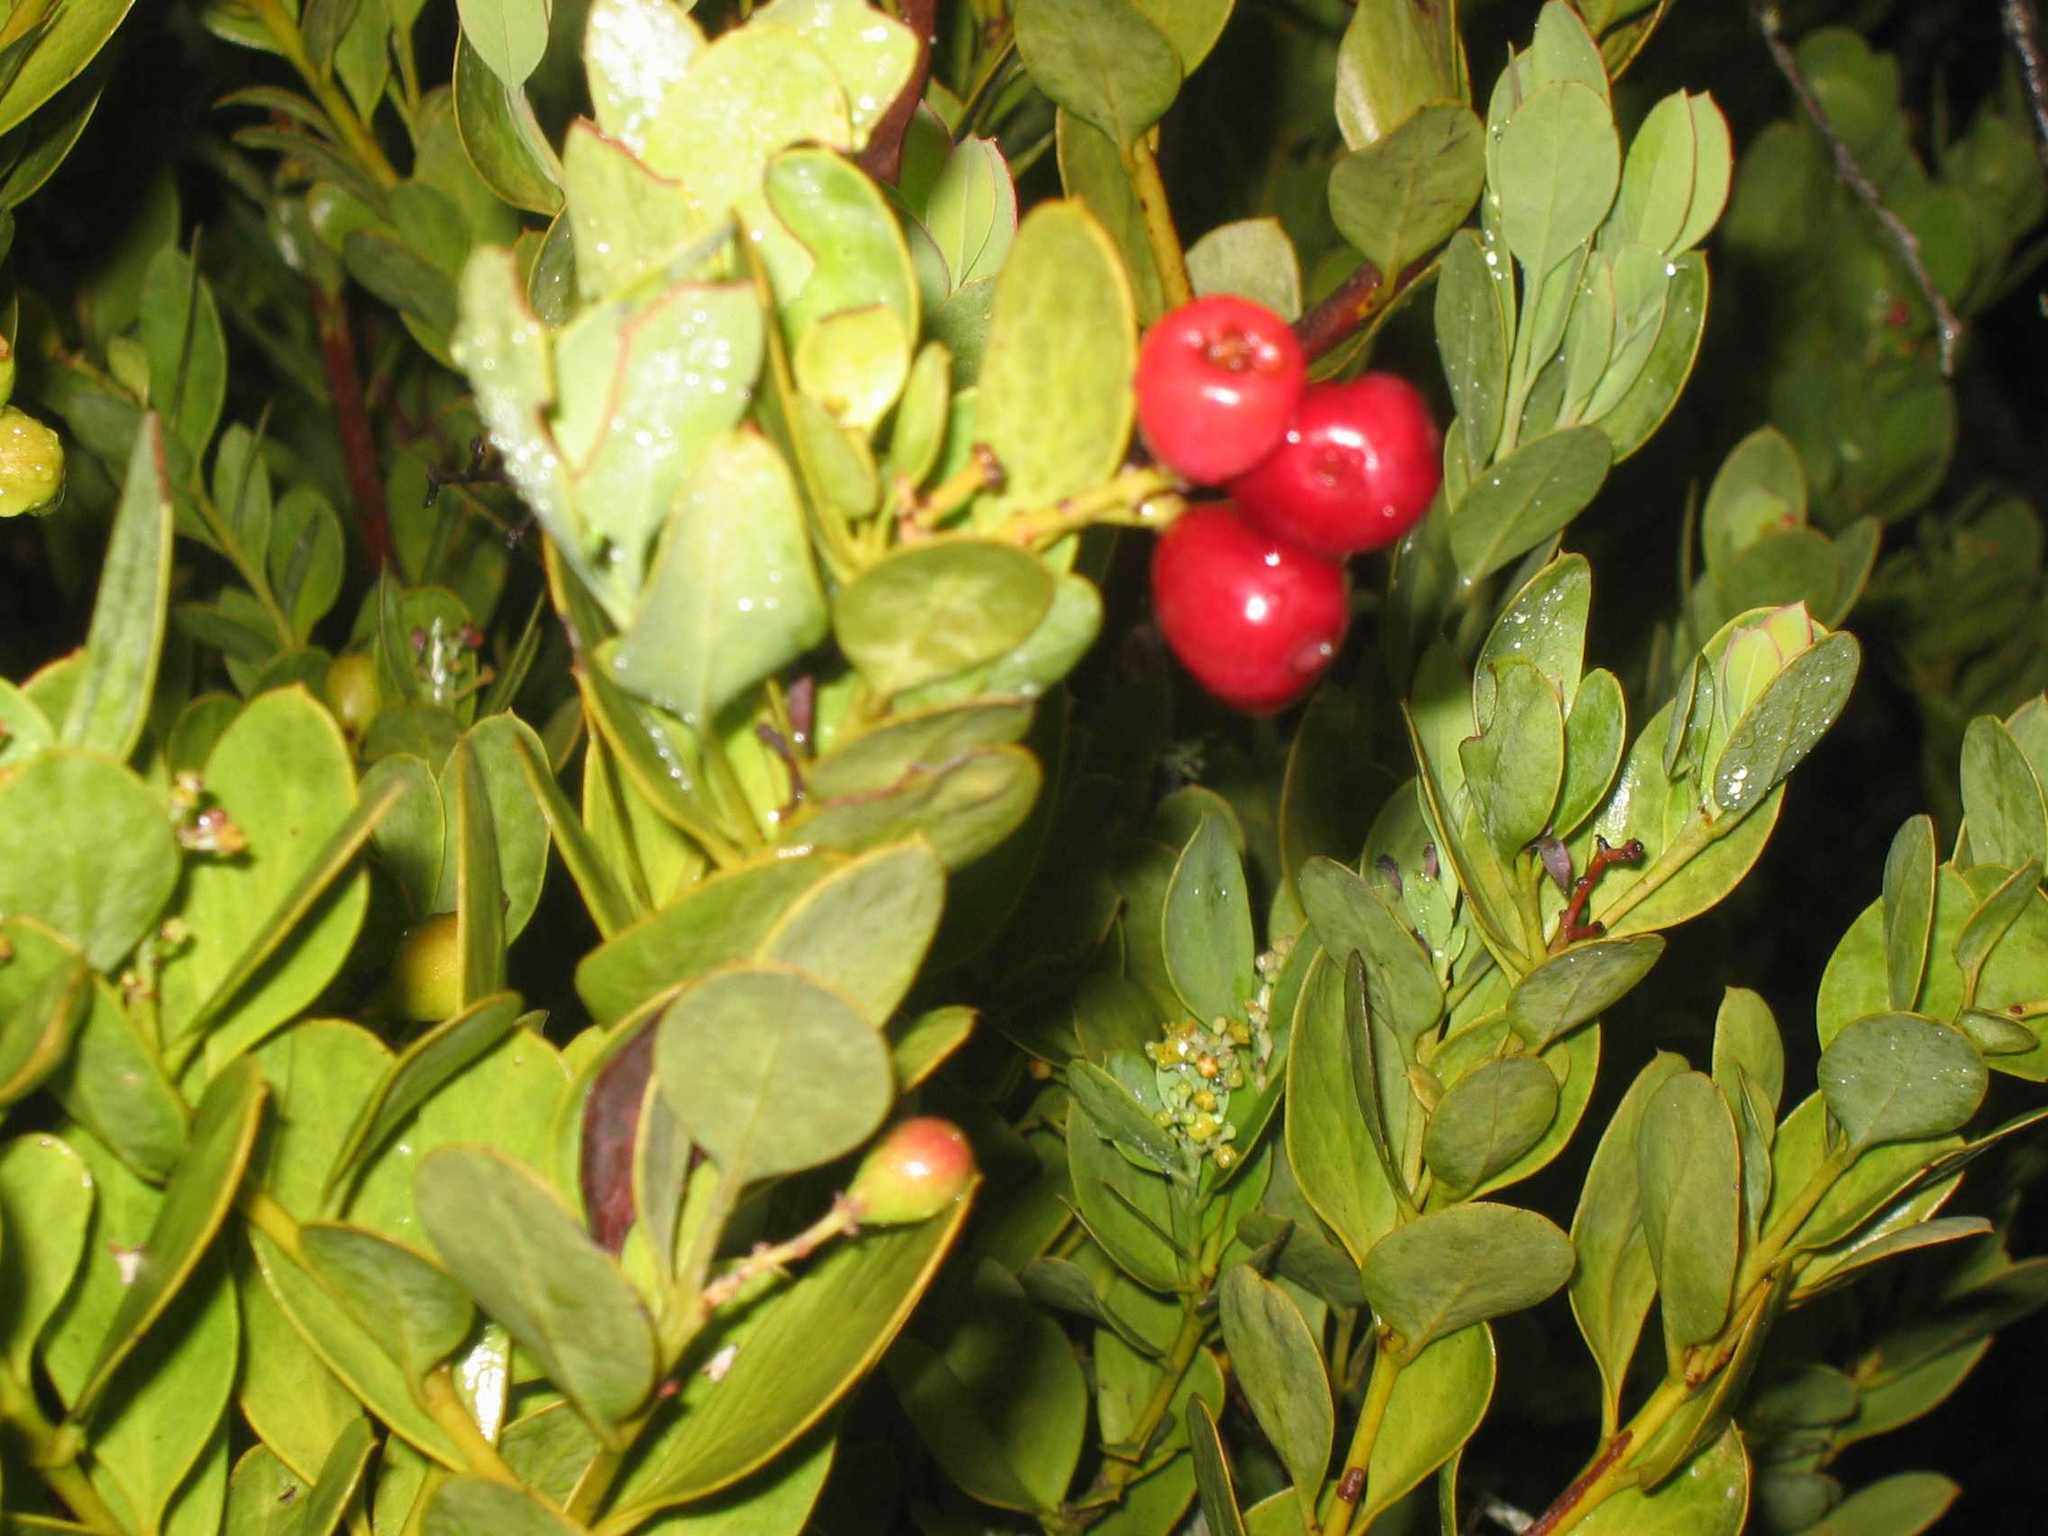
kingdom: Plantae
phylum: Tracheophyta
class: Magnoliopsida
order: Santalales
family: Santalaceae
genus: Osyris
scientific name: Osyris compressa
